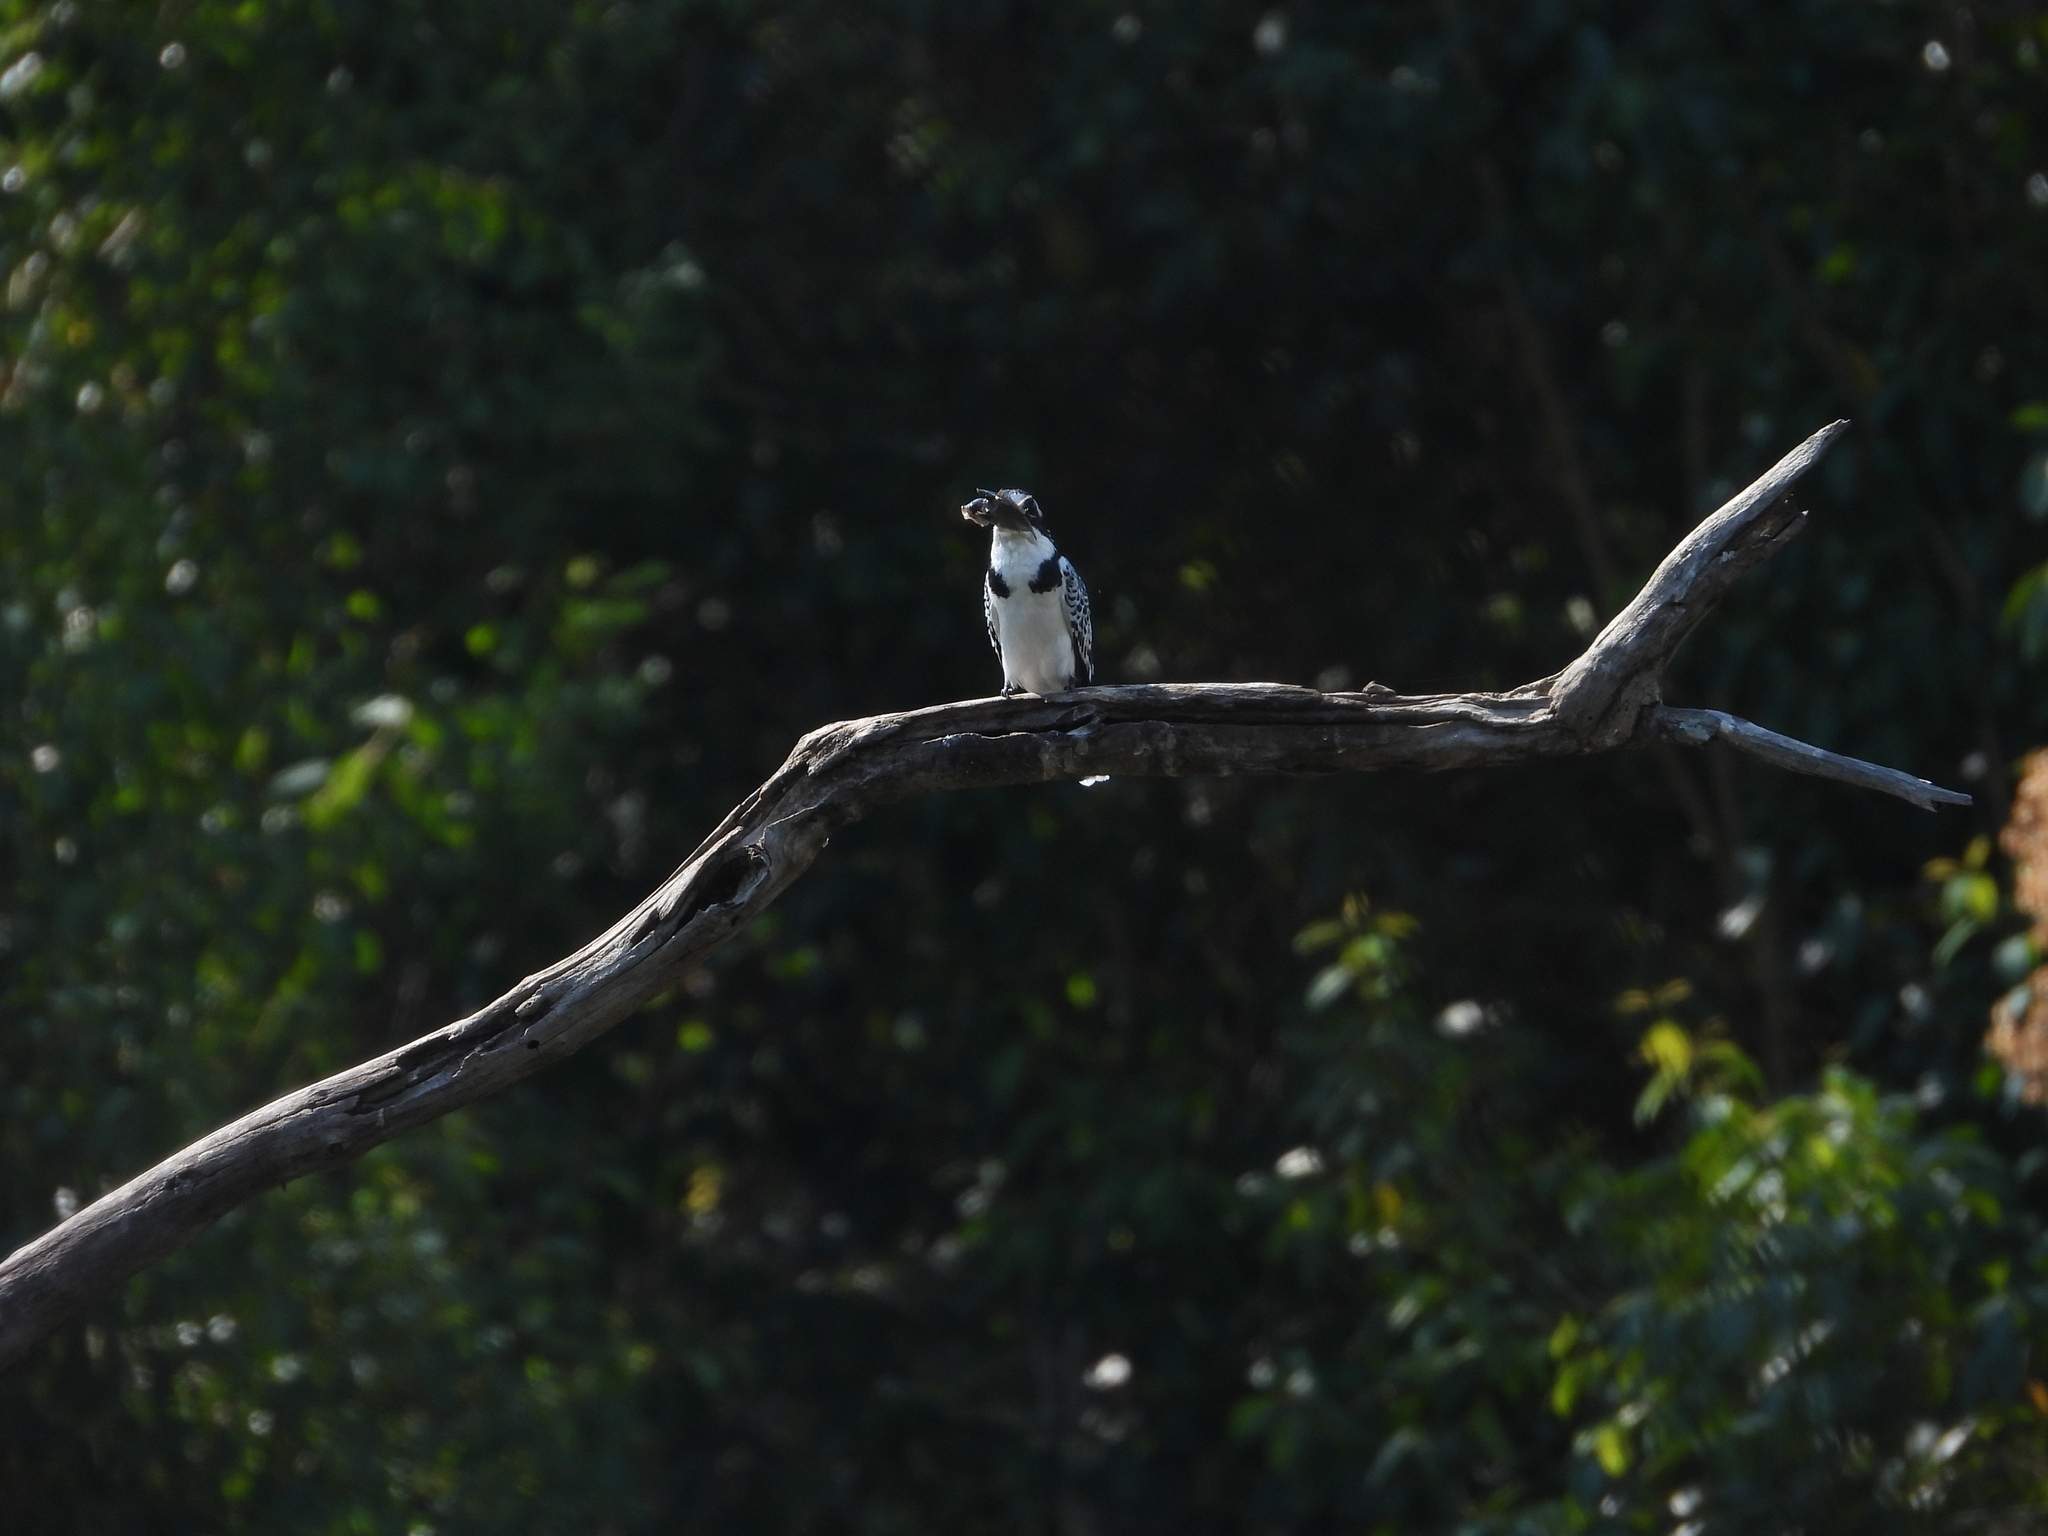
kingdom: Animalia
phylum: Chordata
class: Aves
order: Coraciiformes
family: Alcedinidae
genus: Ceryle
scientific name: Ceryle rudis
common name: Pied kingfisher
